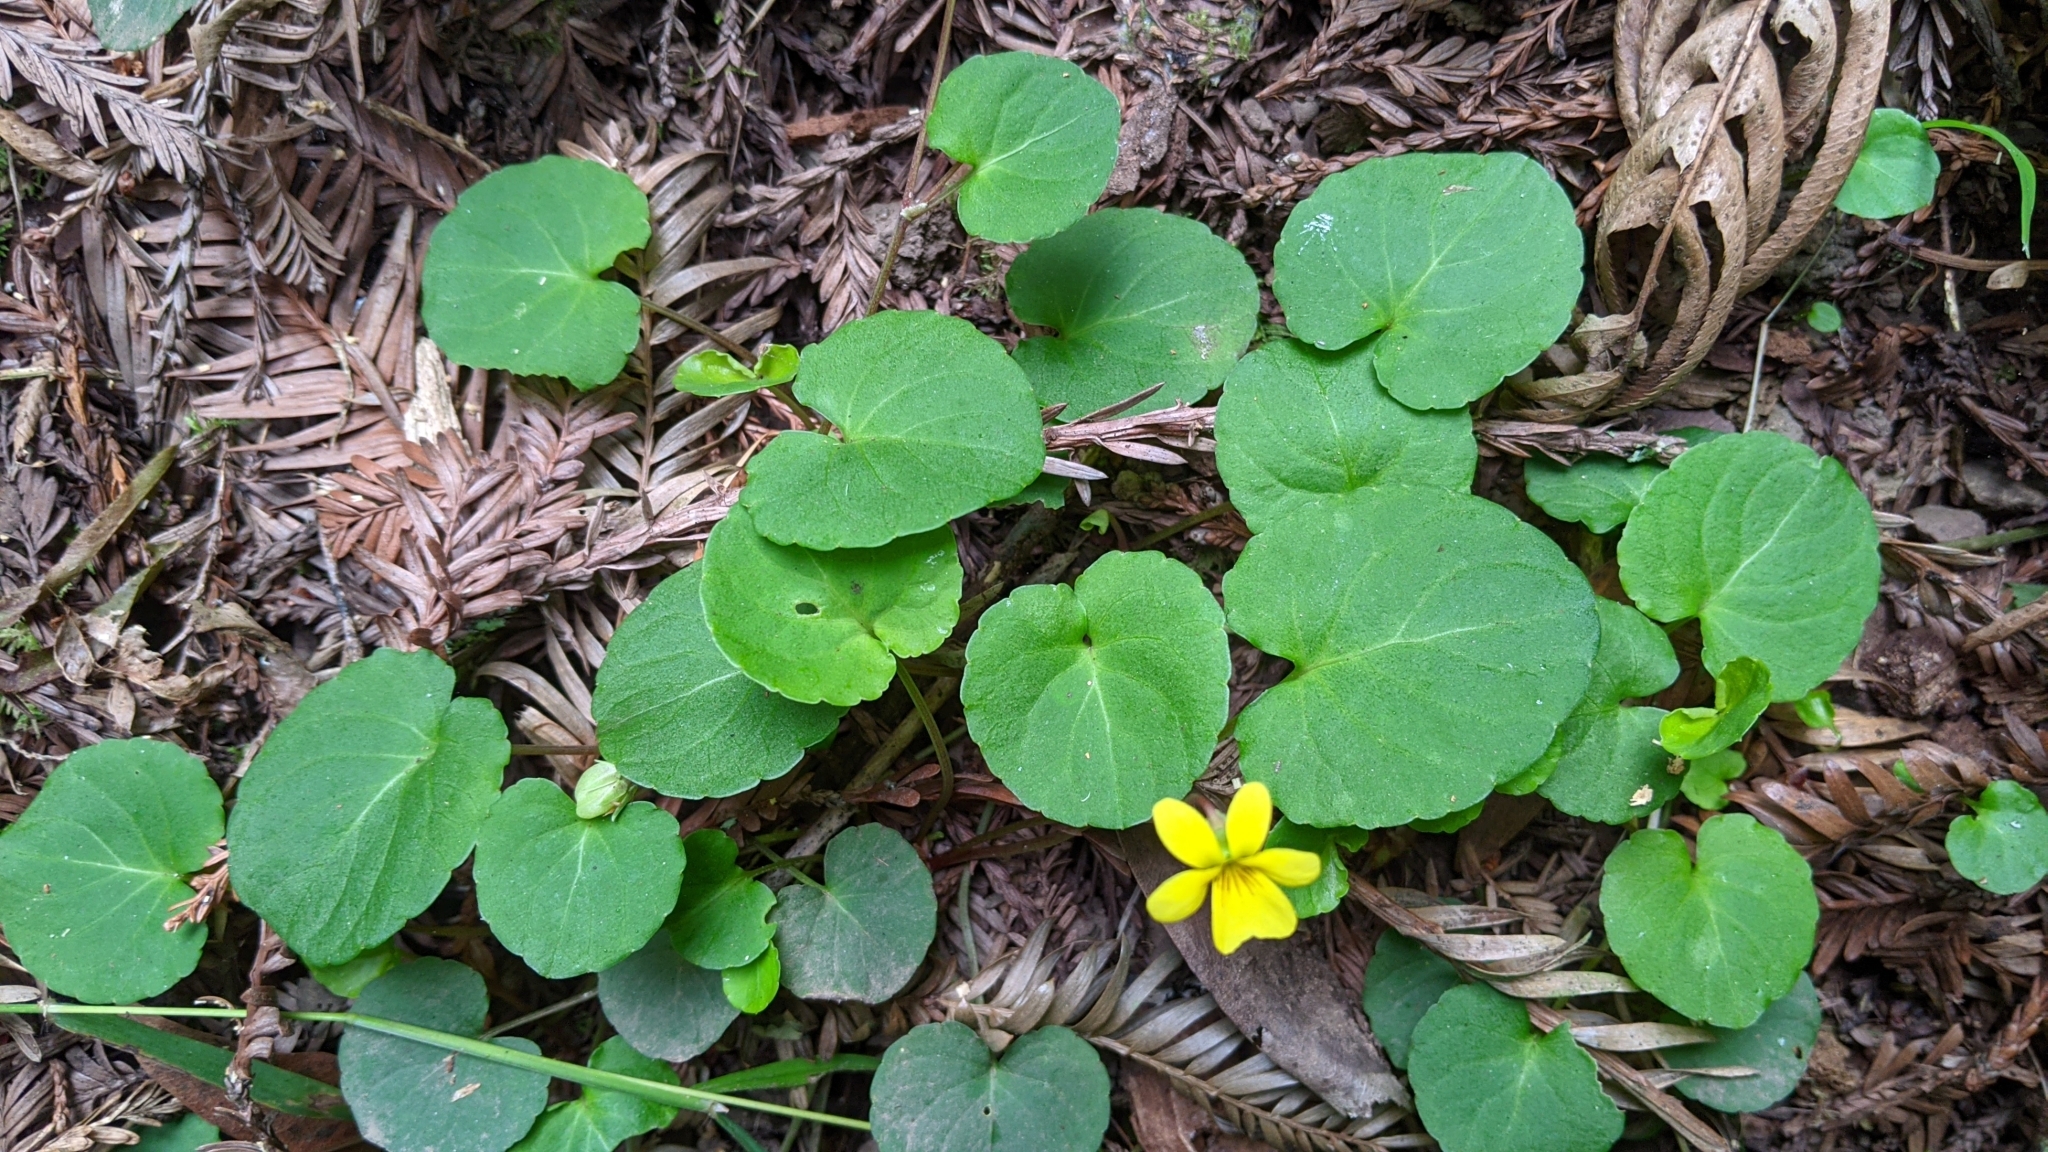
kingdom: Plantae
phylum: Tracheophyta
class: Magnoliopsida
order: Malpighiales
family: Violaceae
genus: Viola
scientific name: Viola sempervirens
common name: Evergreen violet
